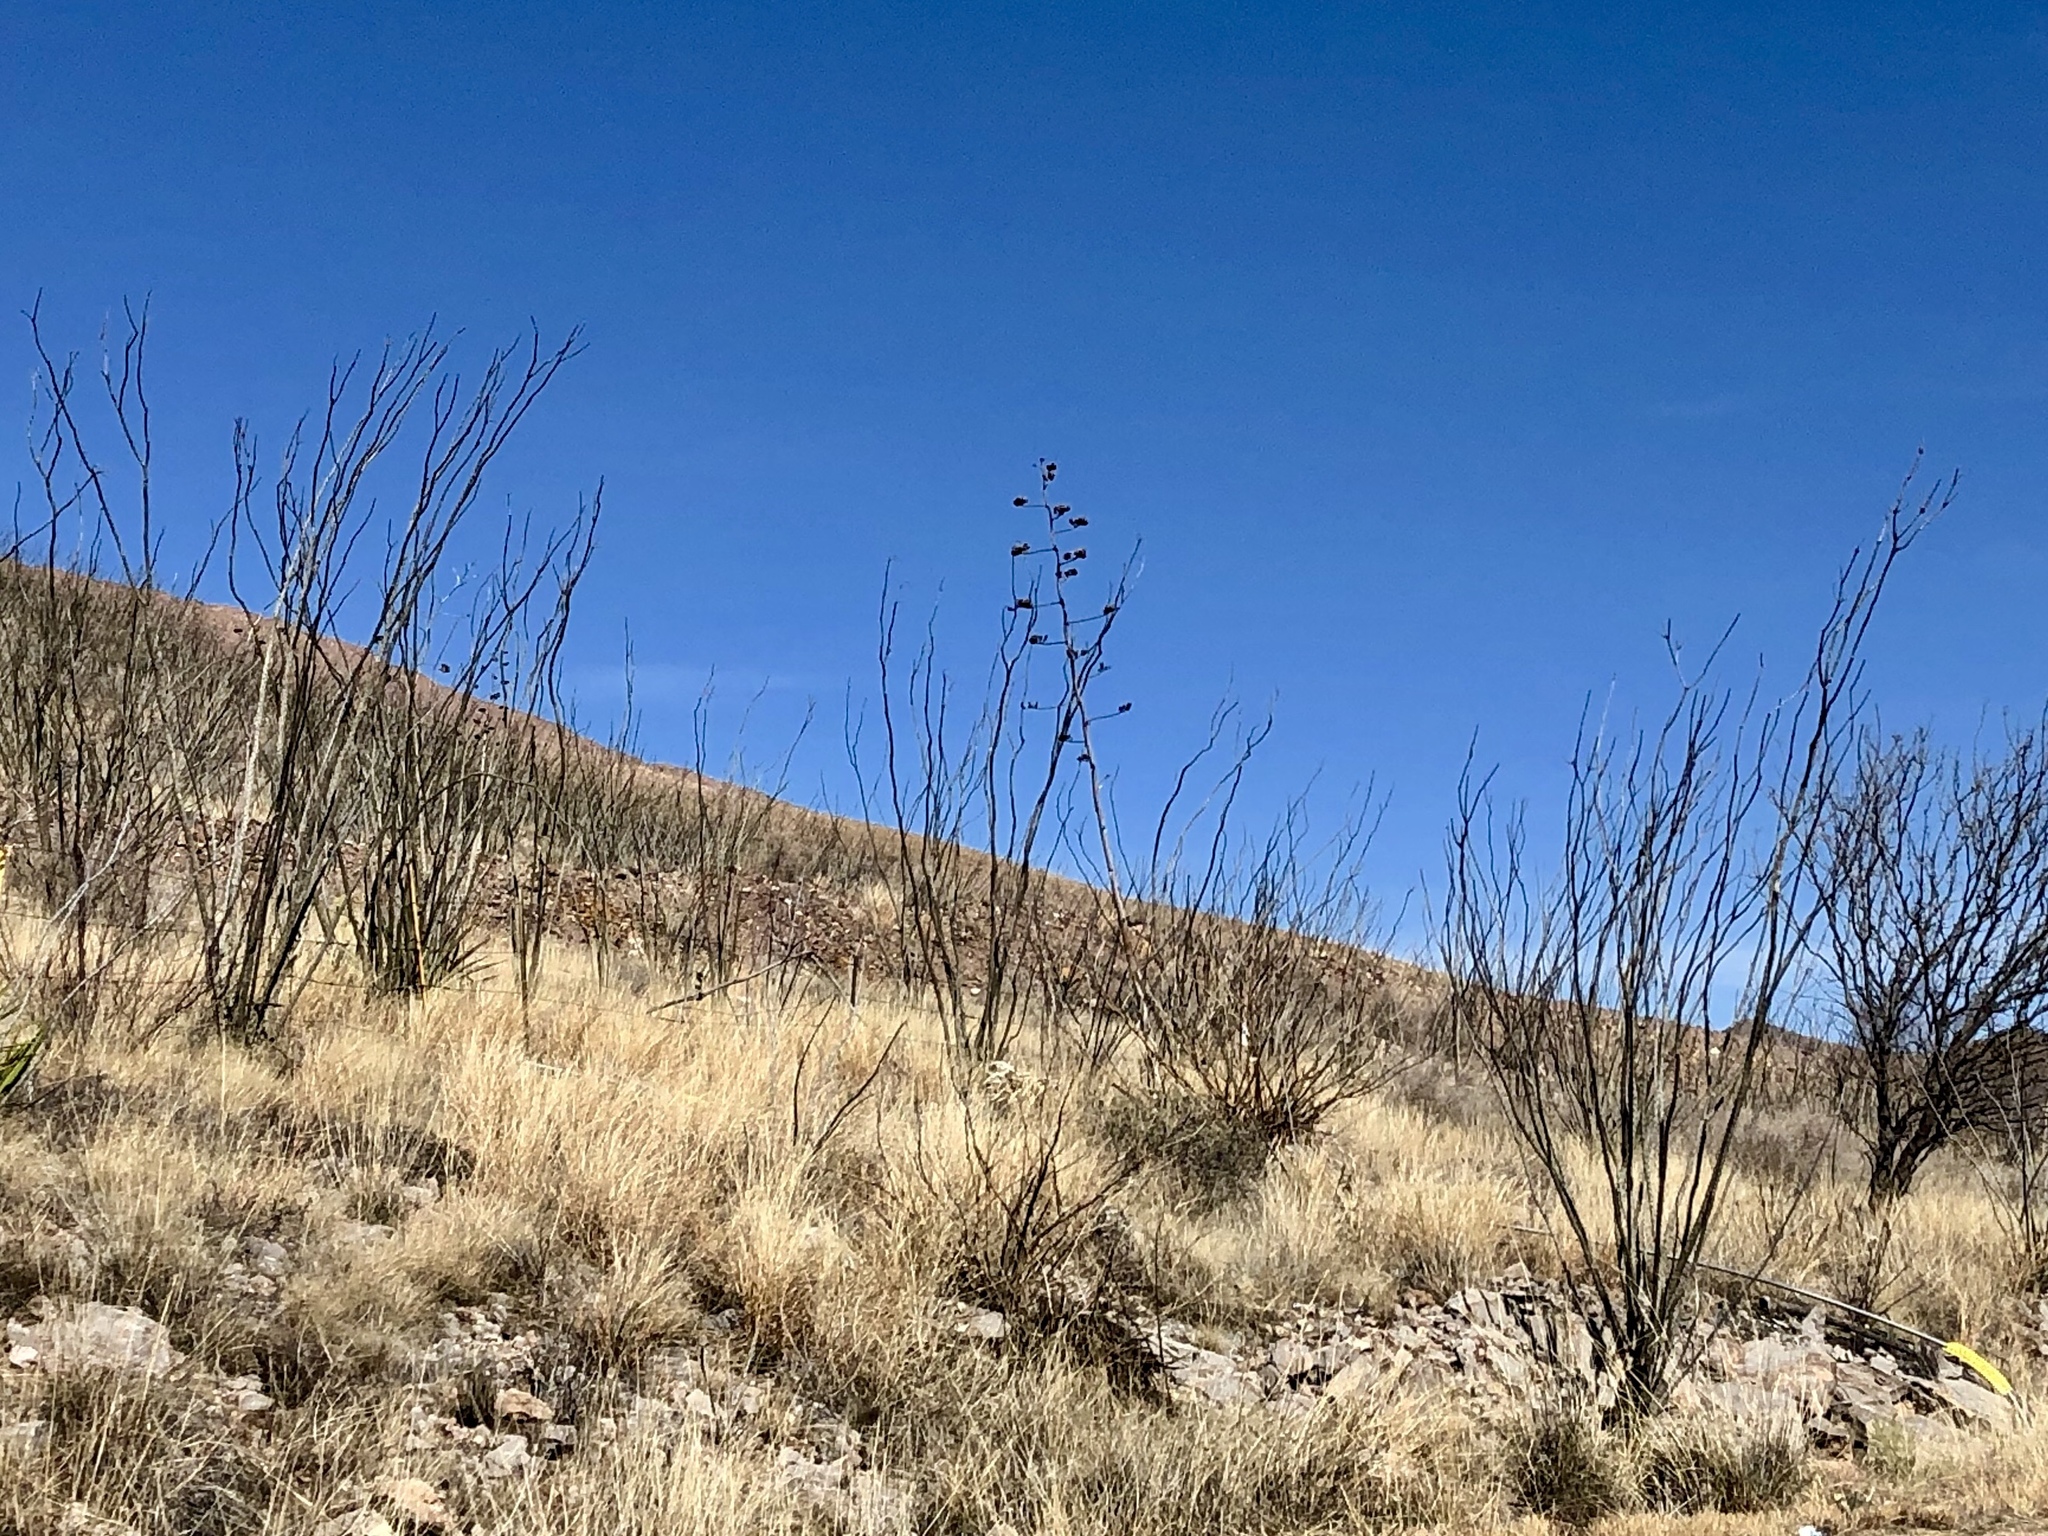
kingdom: Plantae
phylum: Tracheophyta
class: Magnoliopsida
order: Ericales
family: Fouquieriaceae
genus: Fouquieria
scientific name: Fouquieria splendens
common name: Vine-cactus
